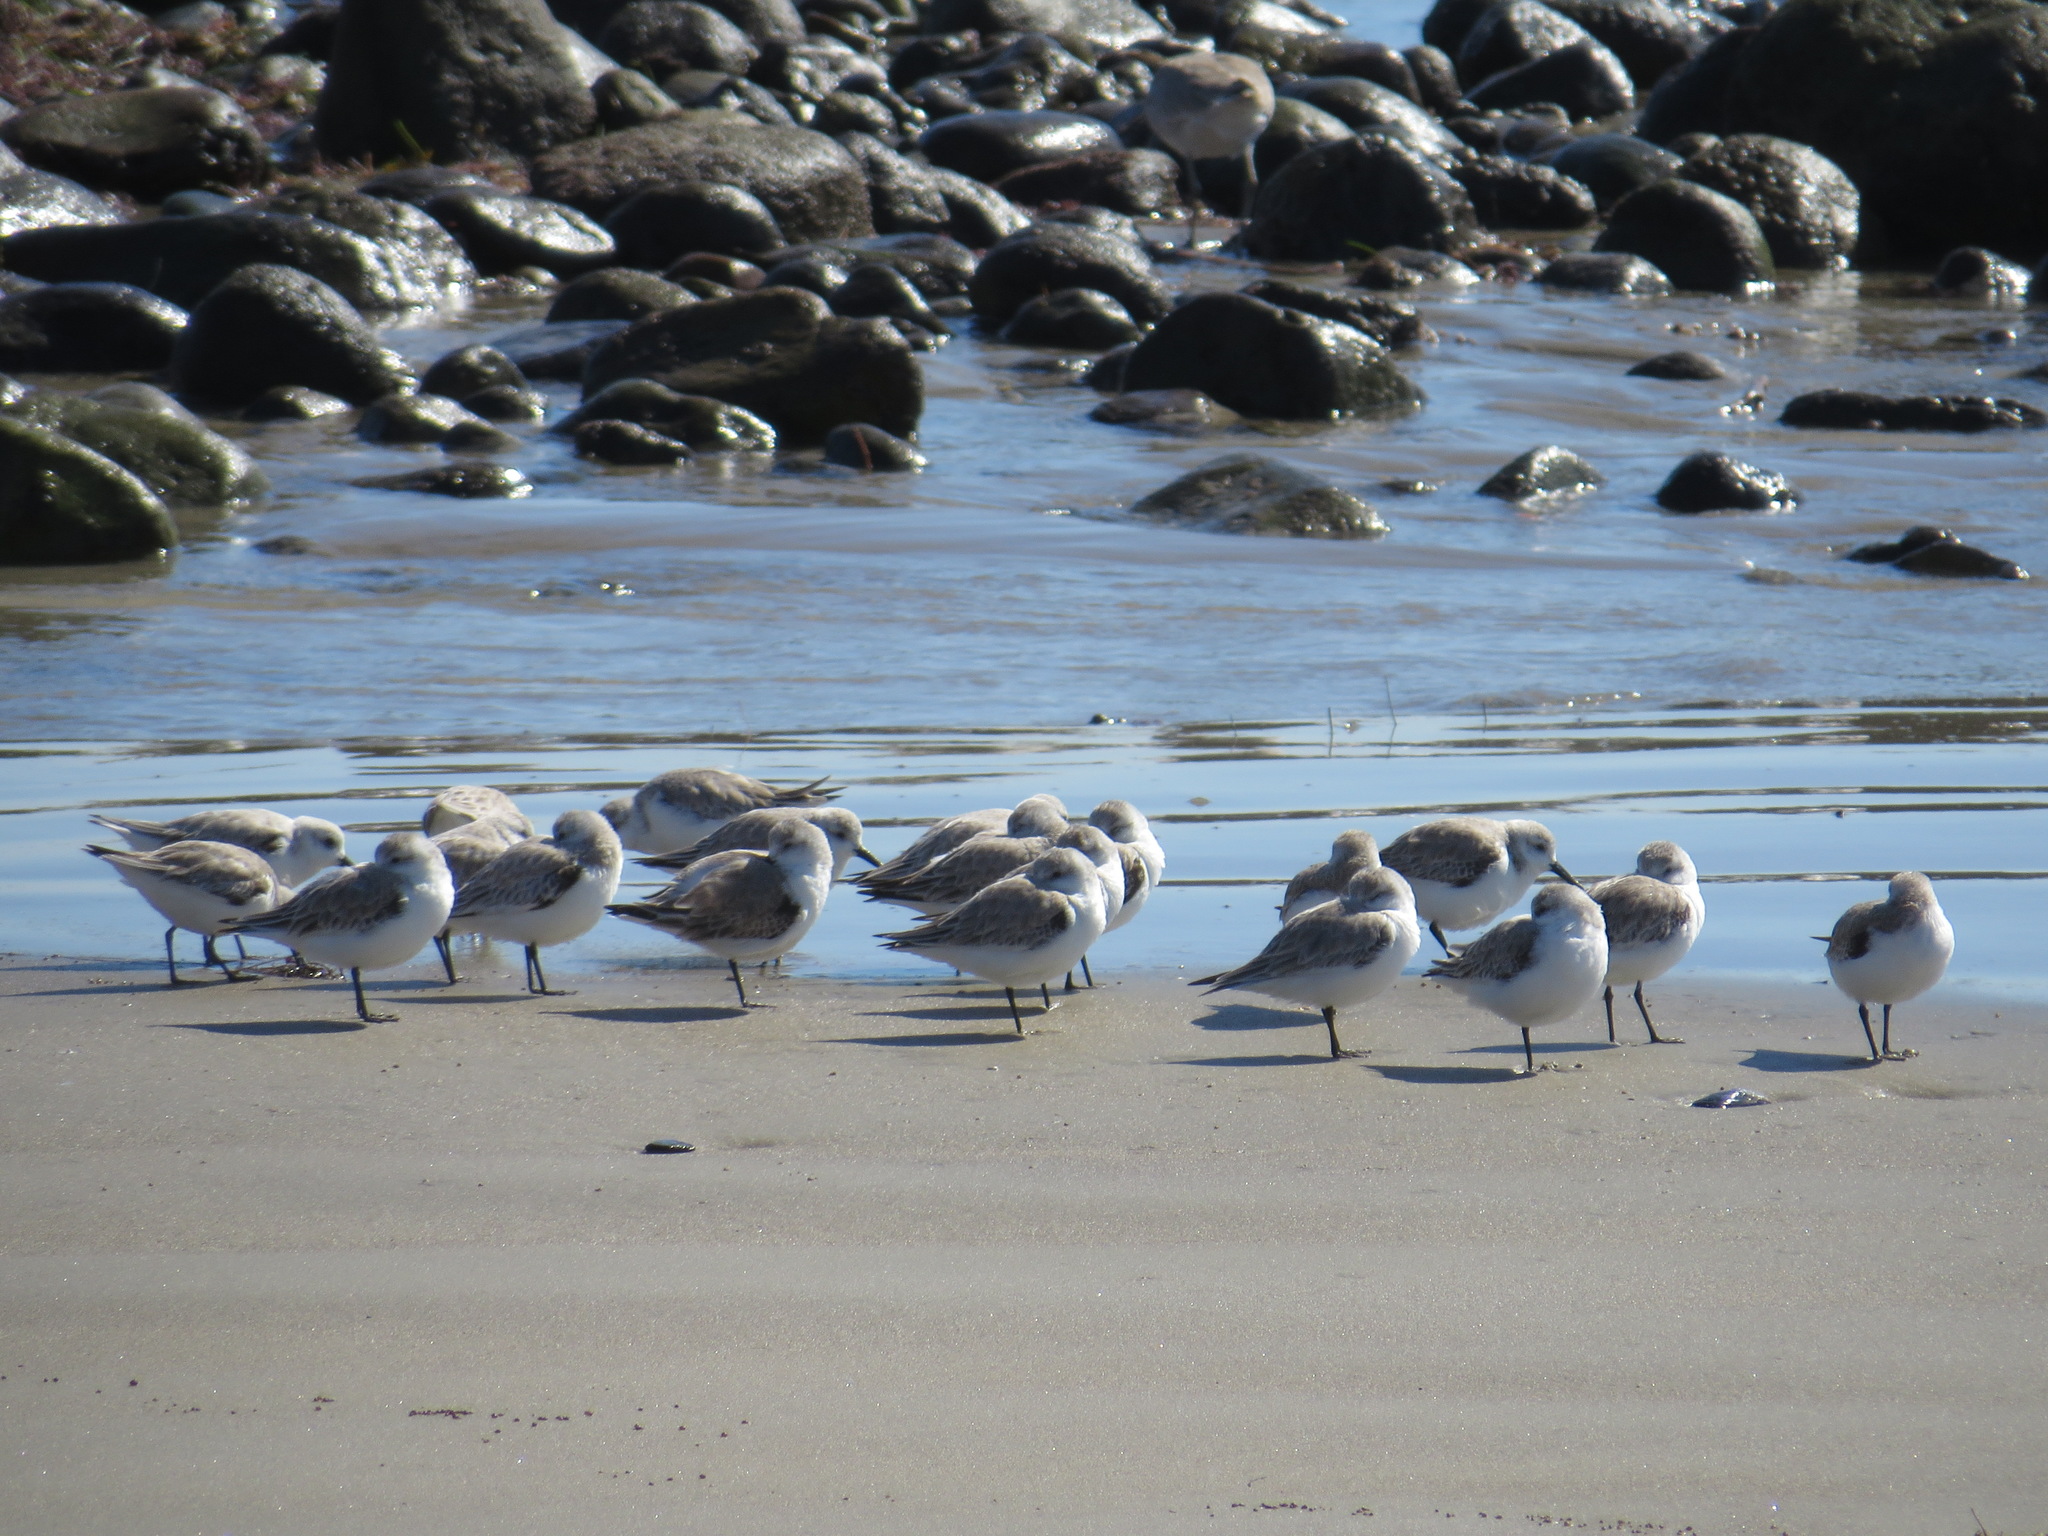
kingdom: Animalia
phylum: Chordata
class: Aves
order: Charadriiformes
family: Scolopacidae
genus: Calidris
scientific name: Calidris alba
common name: Sanderling
